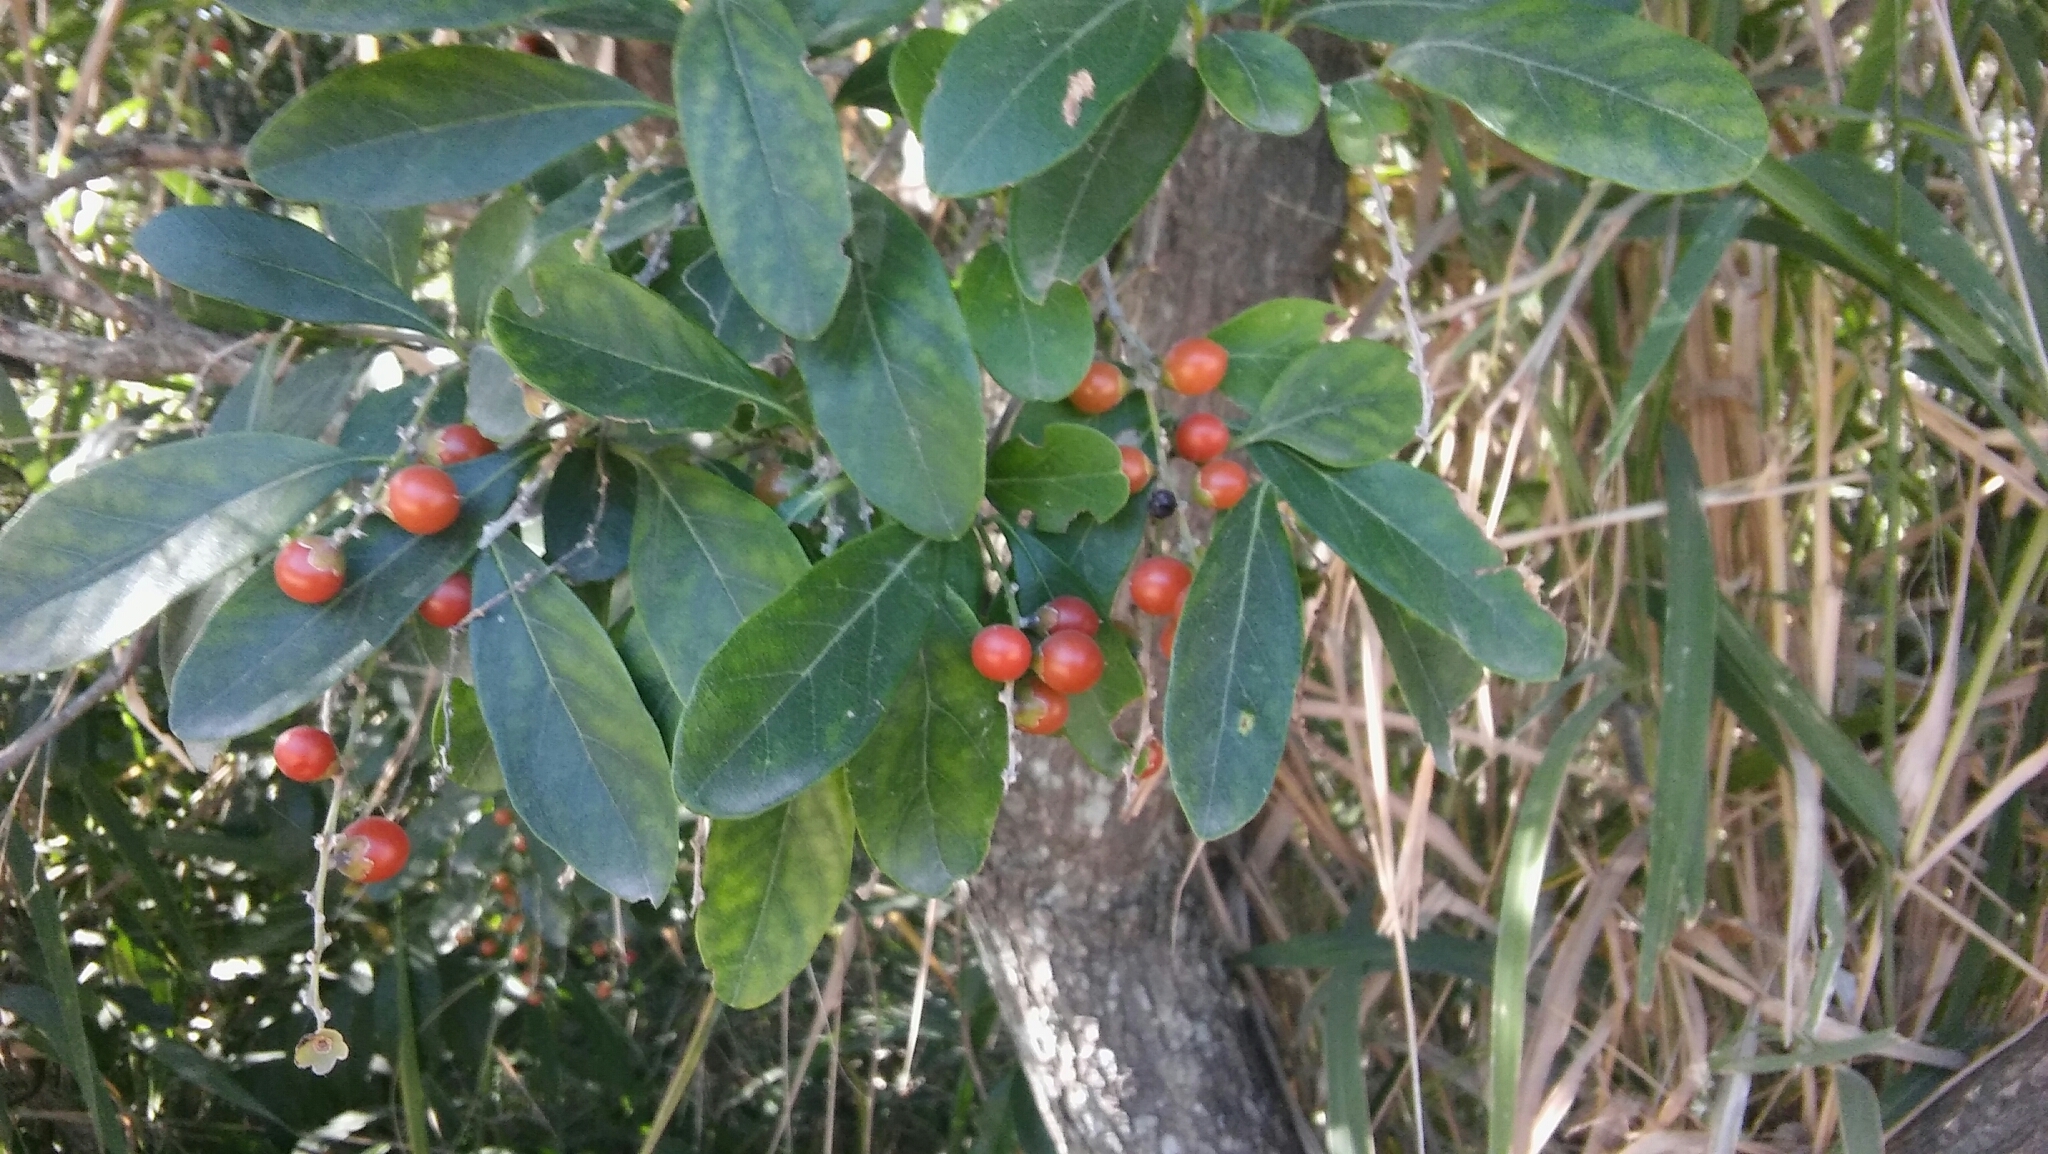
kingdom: Plantae
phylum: Tracheophyta
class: Magnoliopsida
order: Lamiales
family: Verbenaceae
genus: Citharexylum
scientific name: Citharexylum montevidense
